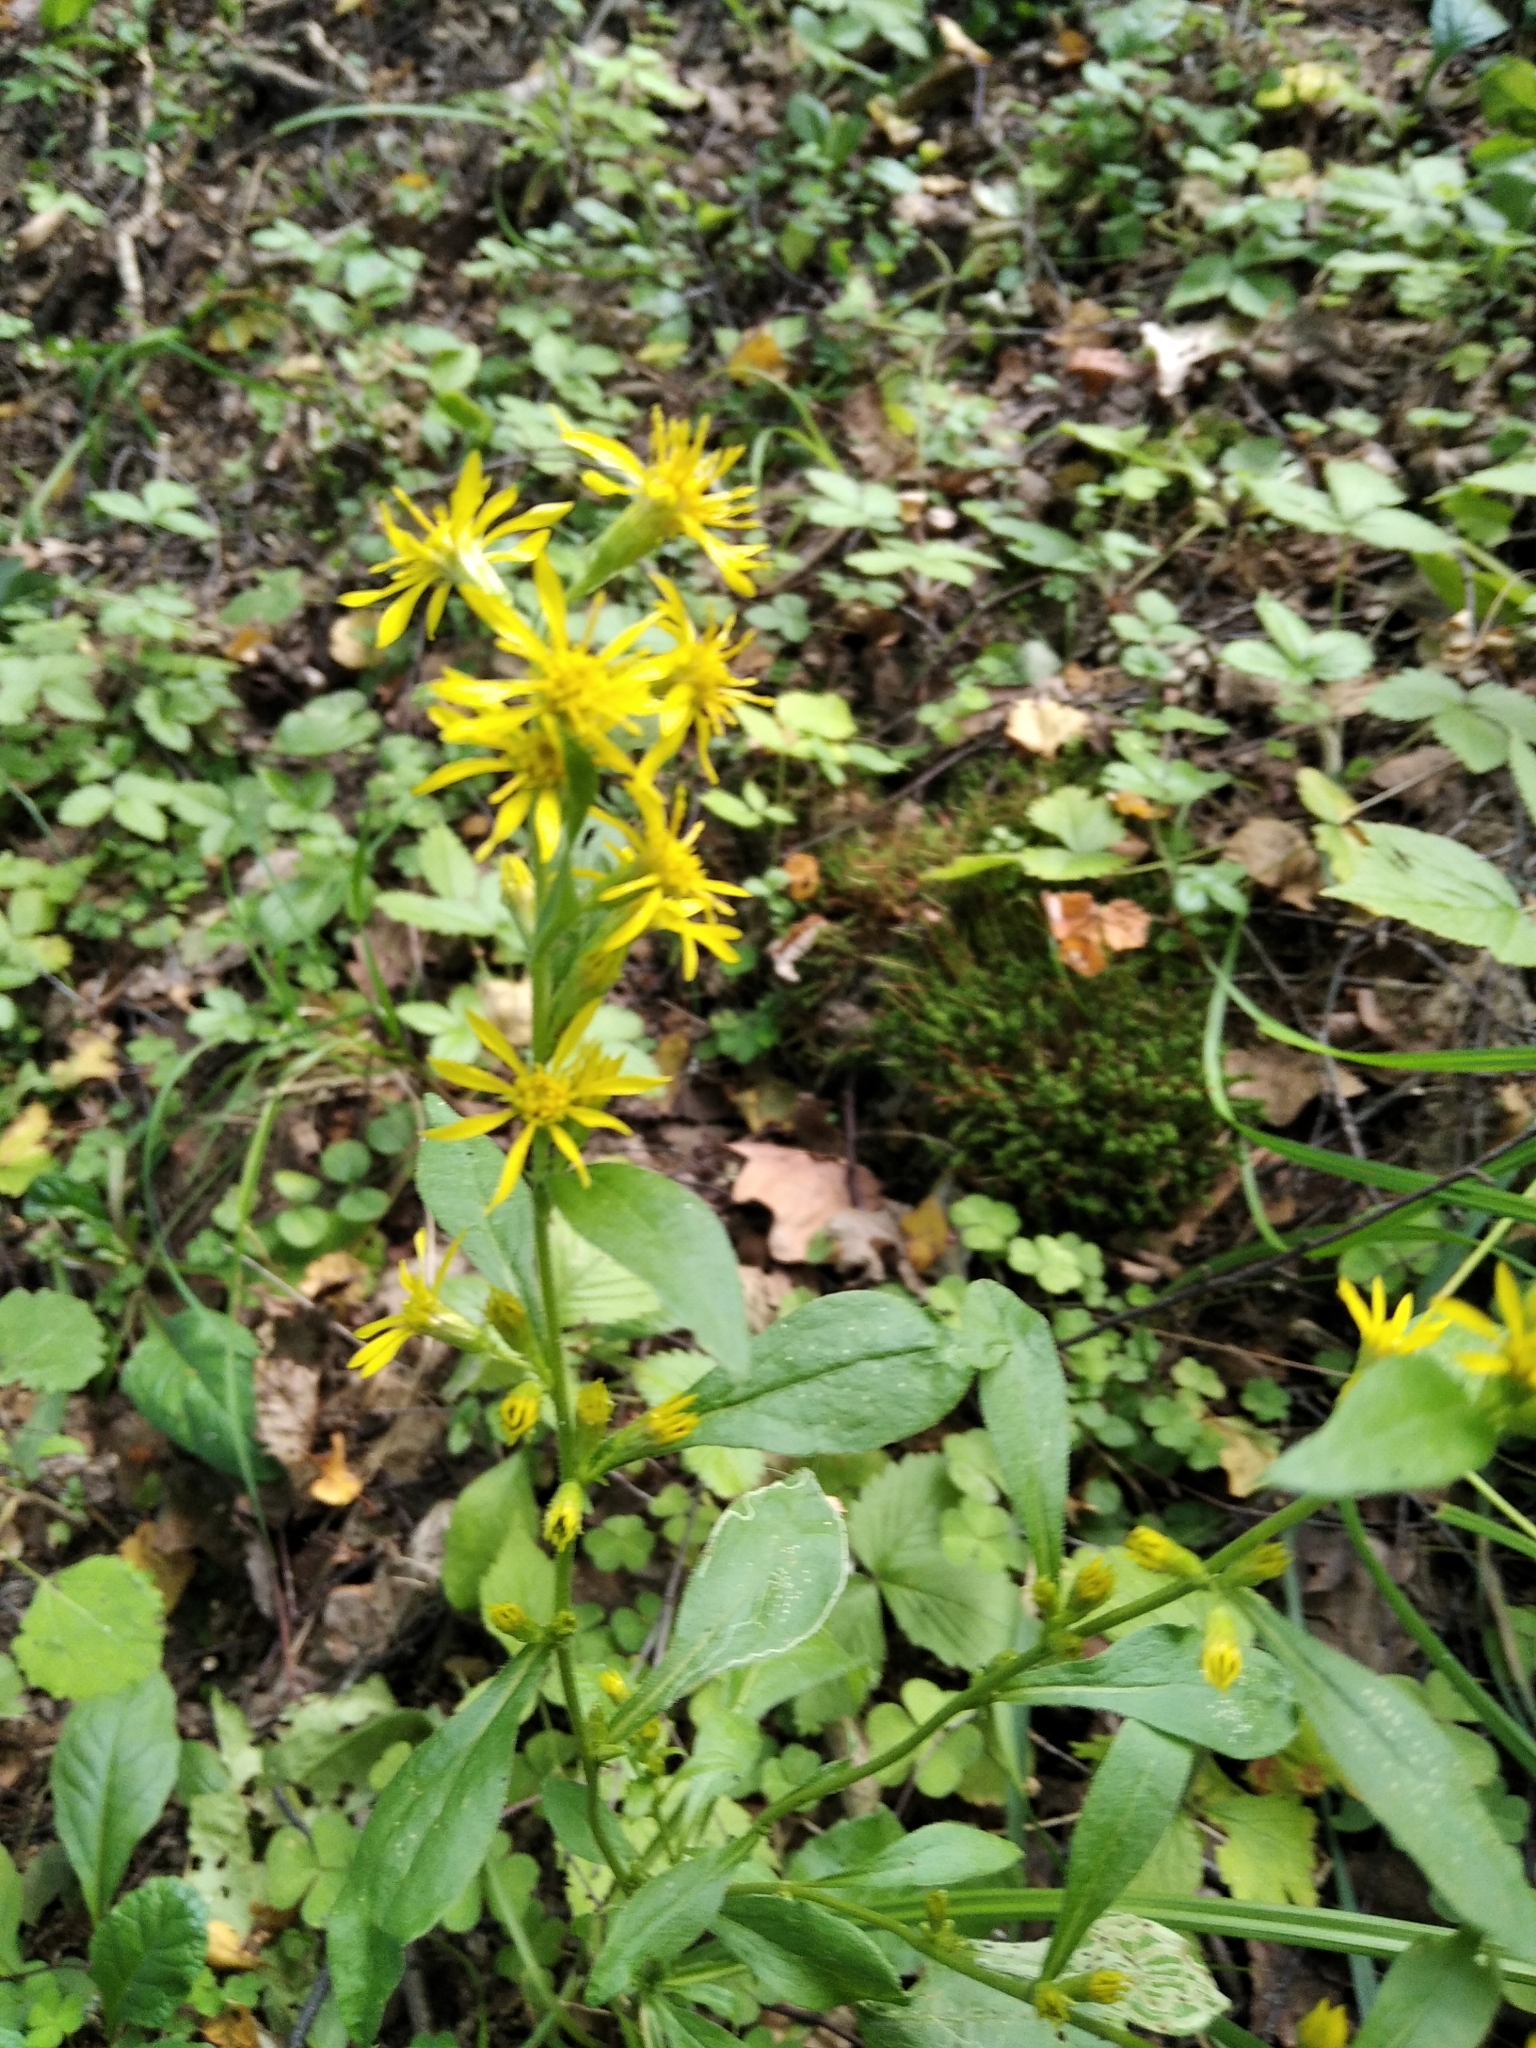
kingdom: Plantae
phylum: Tracheophyta
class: Magnoliopsida
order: Asterales
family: Asteraceae
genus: Solidago
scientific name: Solidago virgaurea
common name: Goldenrod
